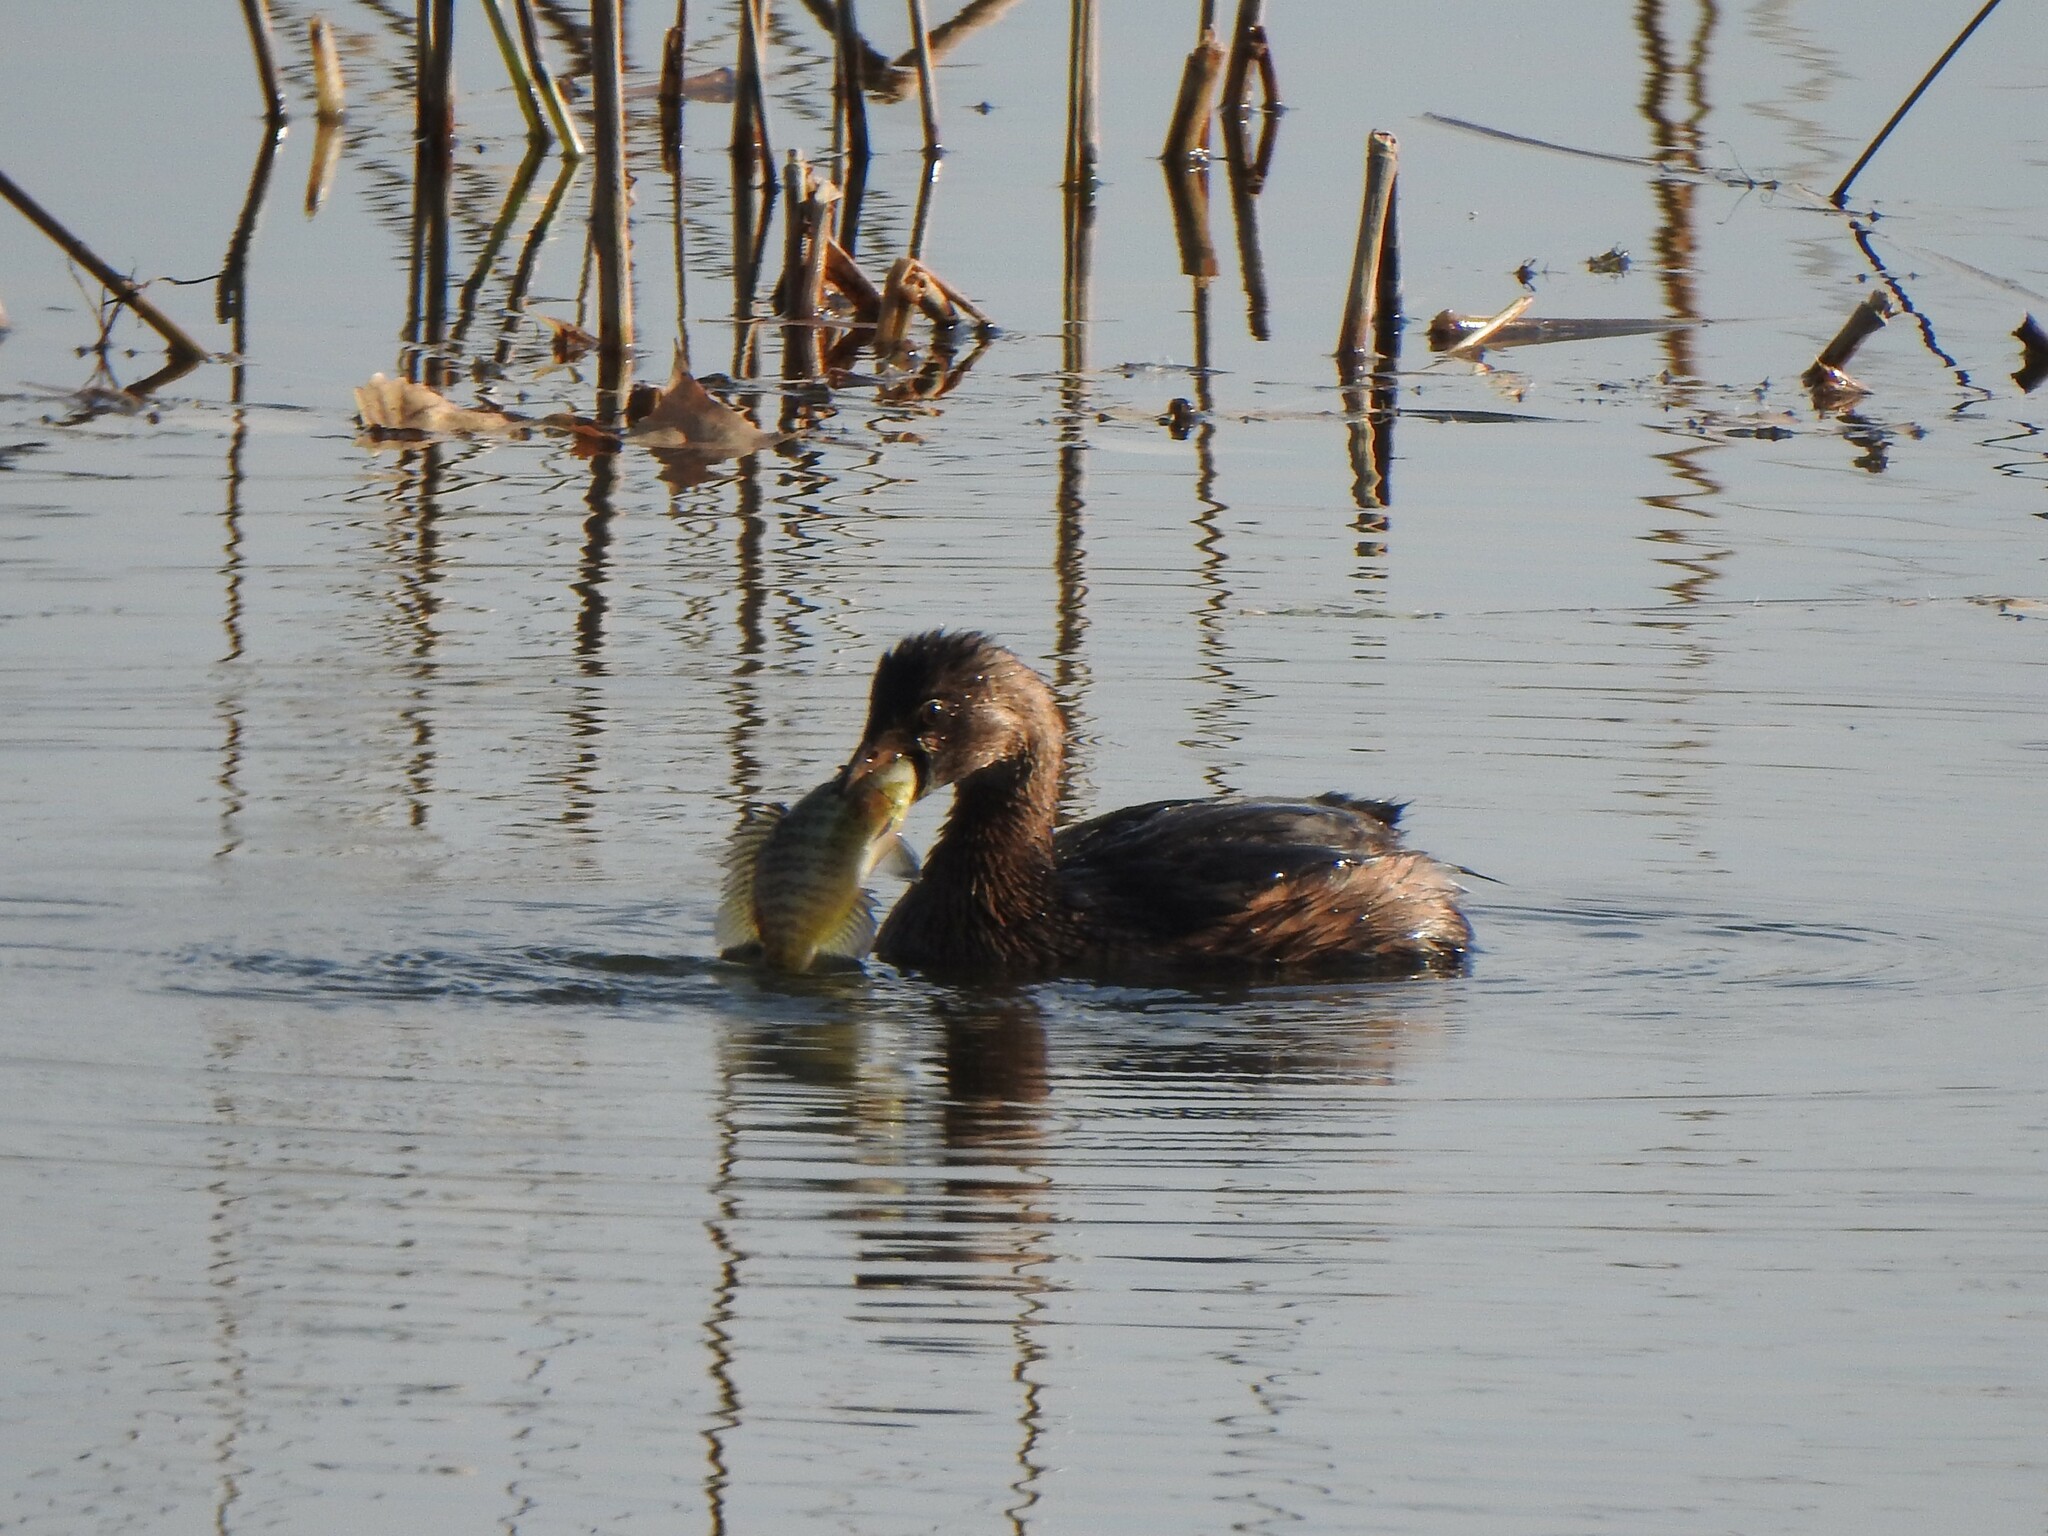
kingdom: Animalia
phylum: Chordata
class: Aves
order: Podicipediformes
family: Podicipedidae
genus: Podilymbus
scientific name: Podilymbus podiceps
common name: Pied-billed grebe
